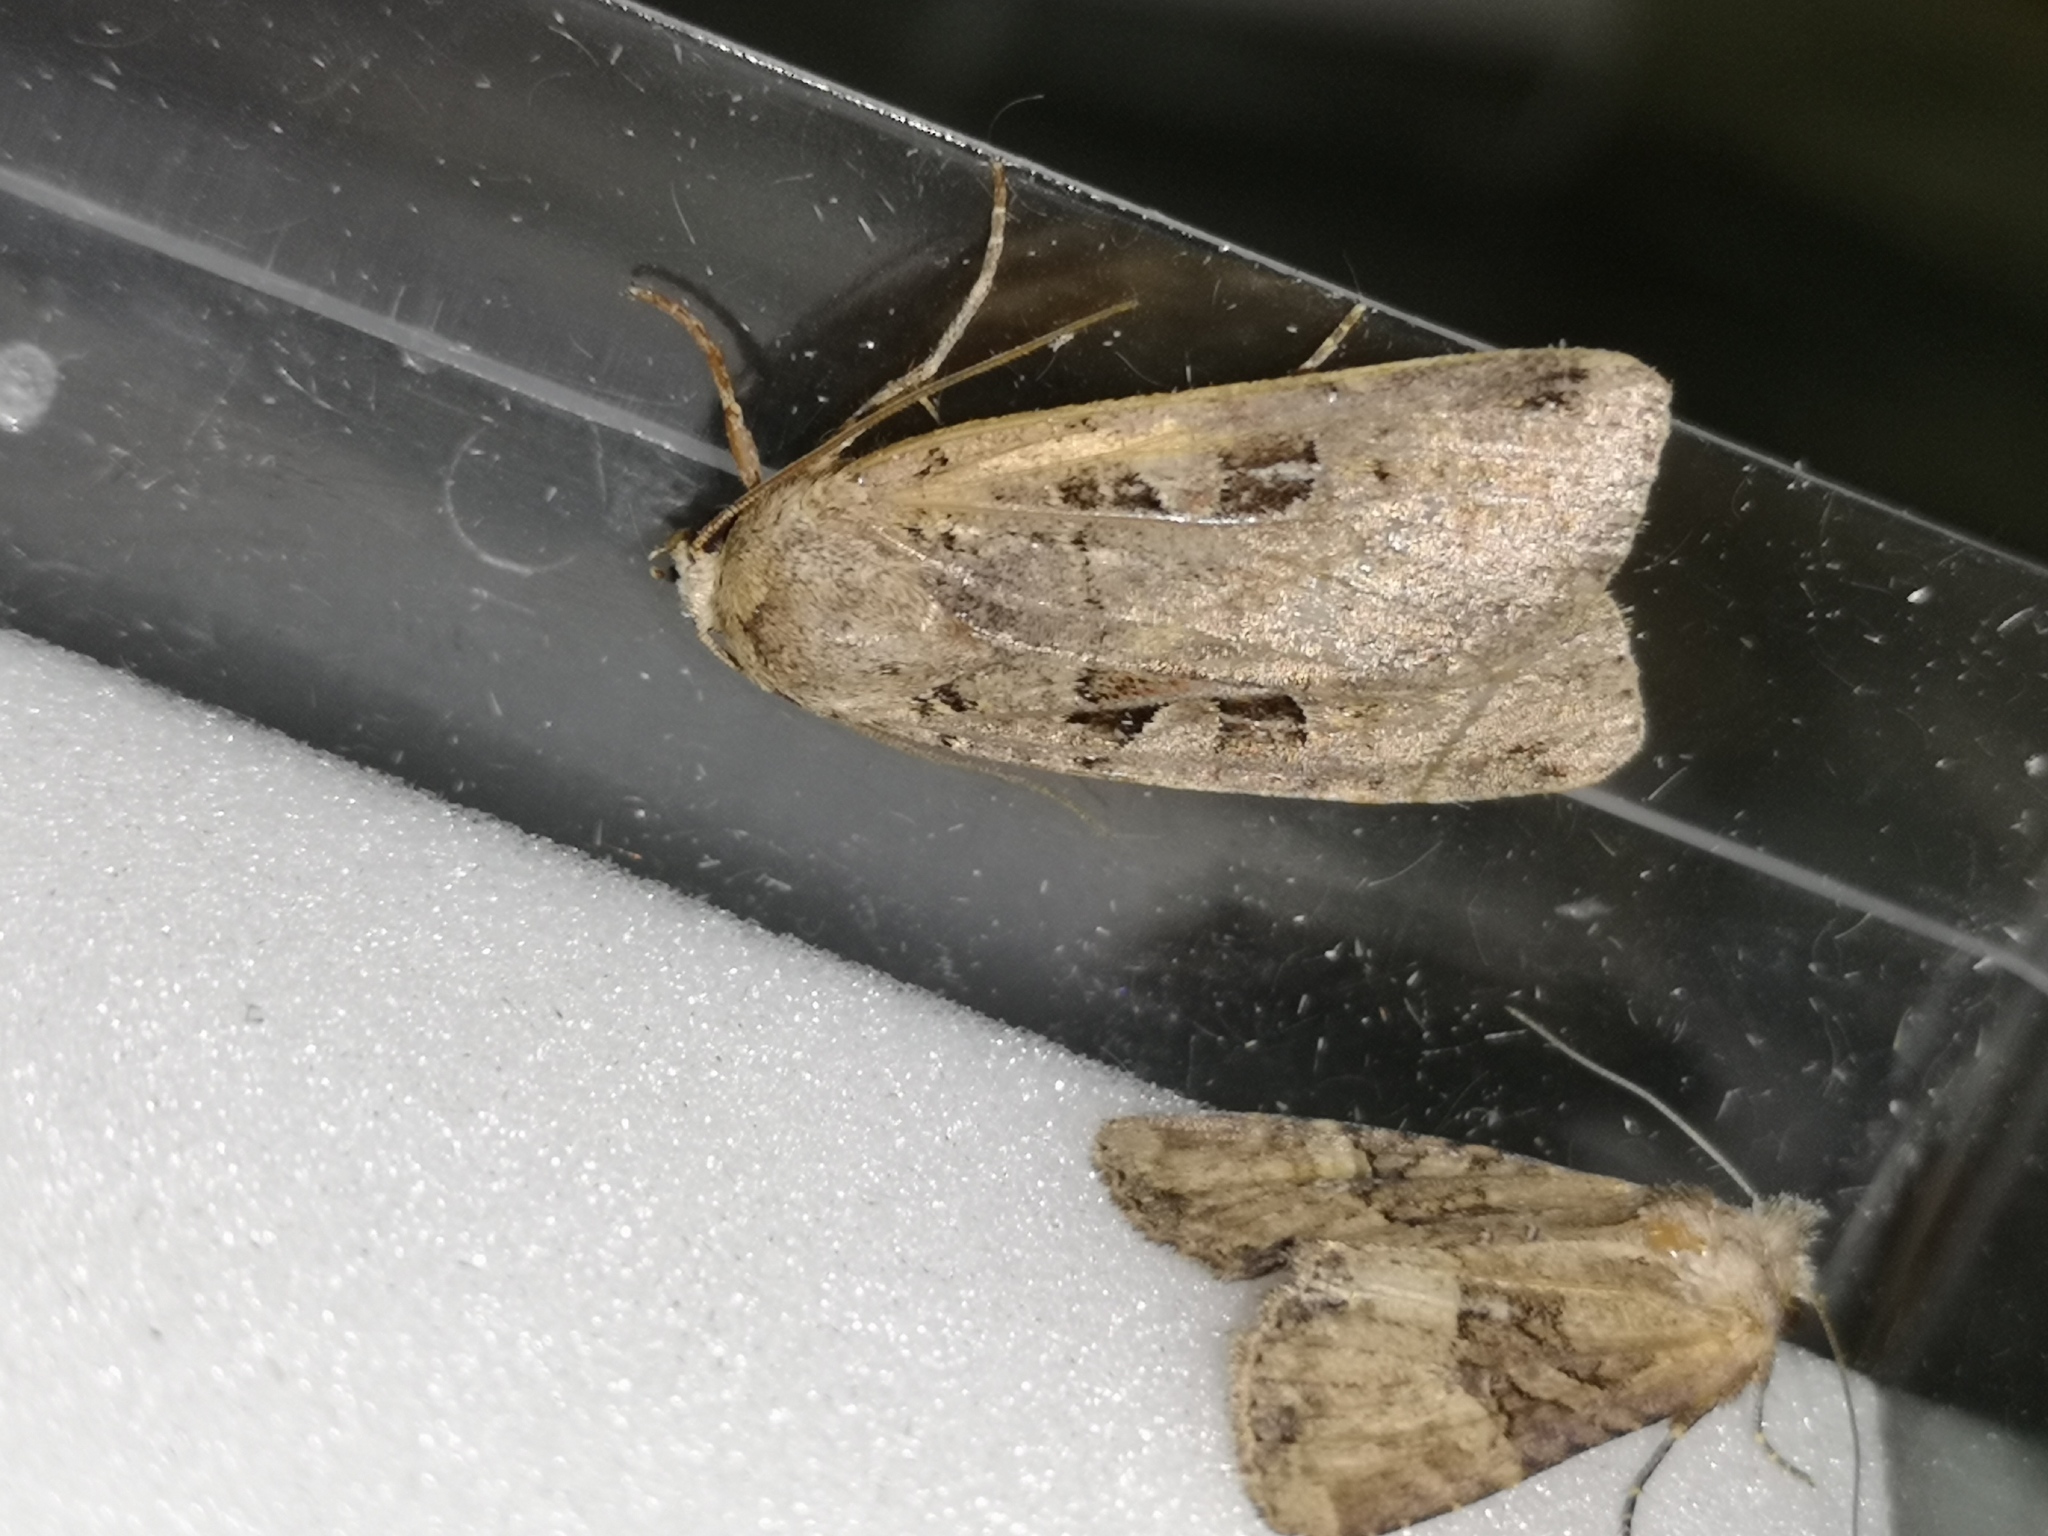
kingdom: Animalia
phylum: Arthropoda
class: Insecta
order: Lepidoptera
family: Noctuidae
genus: Xestia
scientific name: Xestia triangulum
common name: Double square-spot
